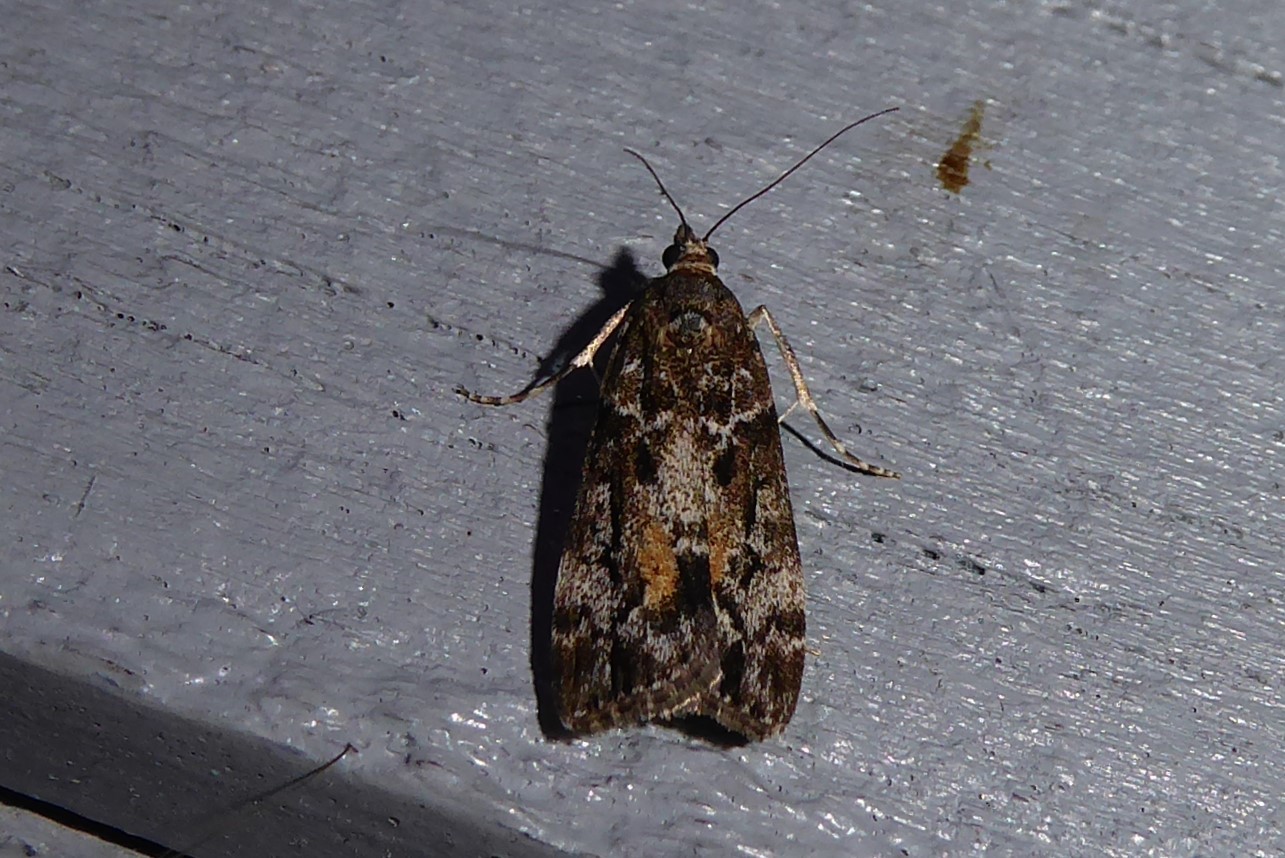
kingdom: Animalia
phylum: Arthropoda
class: Insecta
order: Lepidoptera
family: Crambidae
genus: Eudonia
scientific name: Eudonia submarginalis
